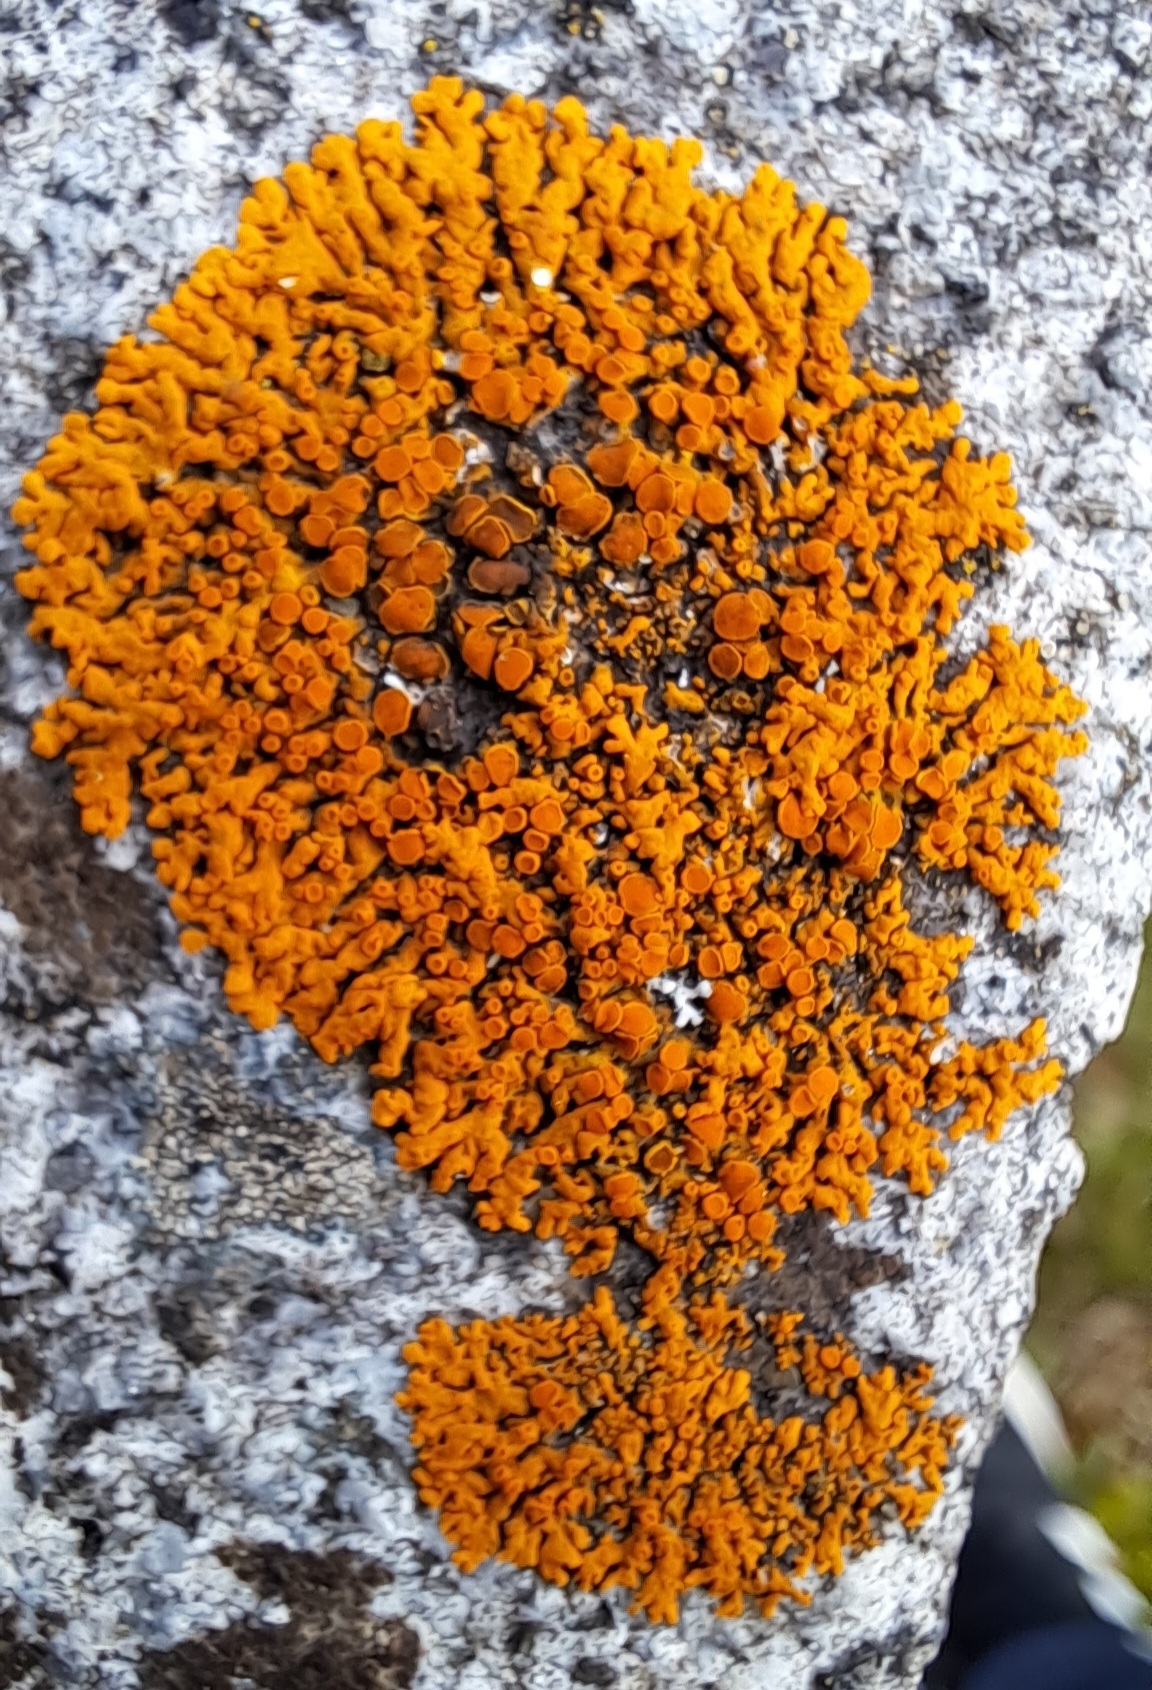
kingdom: Fungi
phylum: Ascomycota
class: Lecanoromycetes
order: Teloschistales
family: Teloschistaceae
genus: Xanthoria
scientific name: Xanthoria elegans
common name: Elegant sunburst lichen
